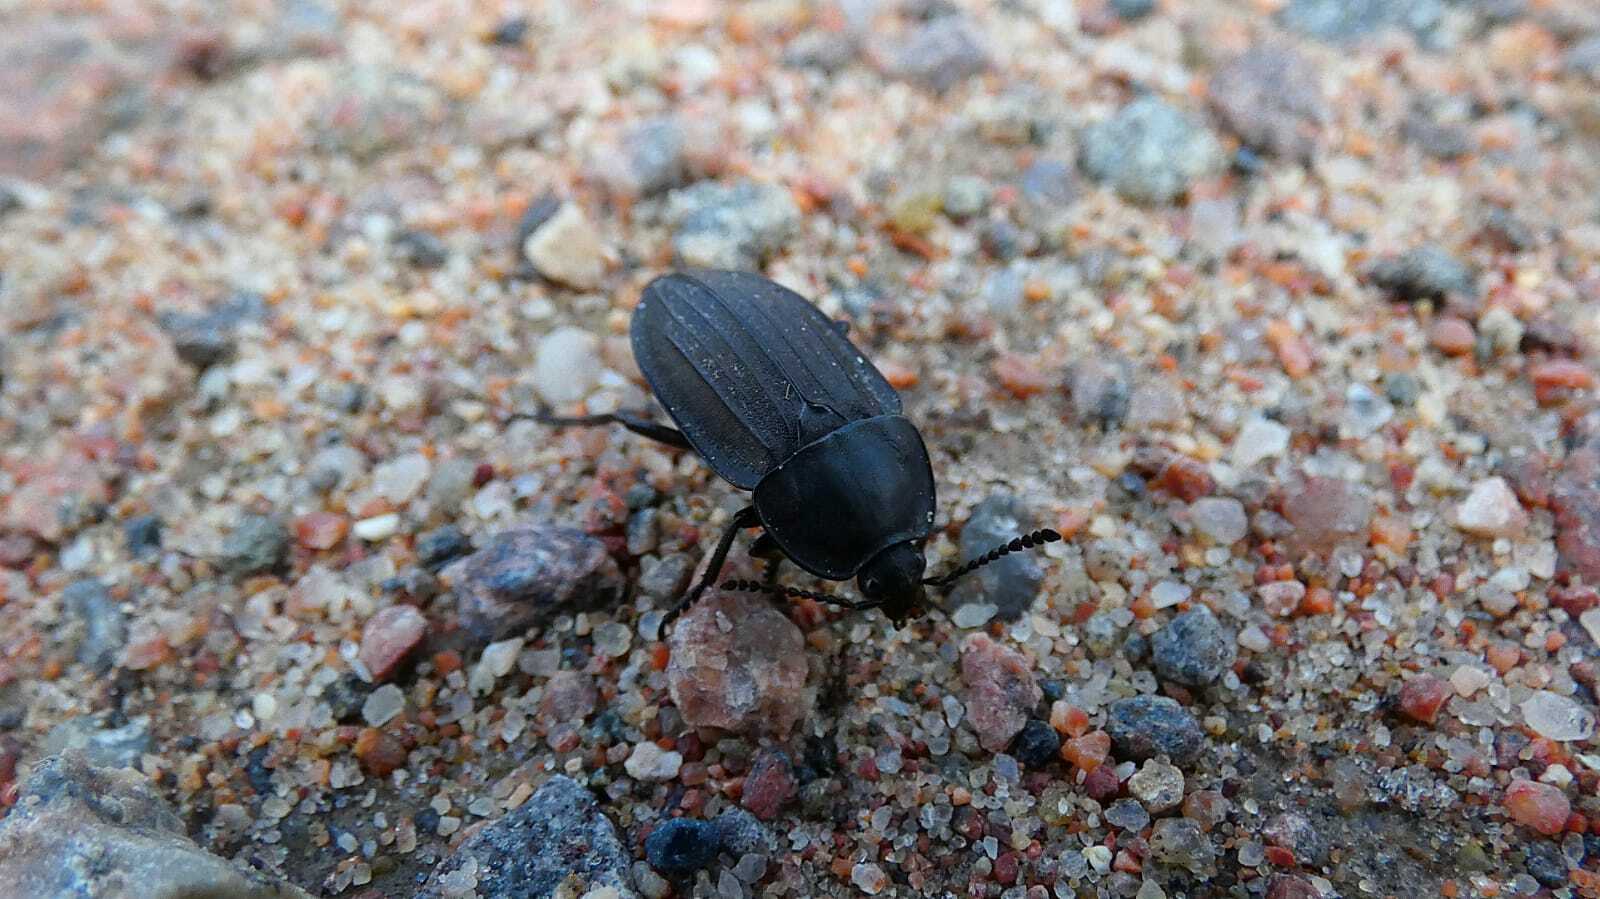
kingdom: Animalia
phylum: Arthropoda
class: Insecta
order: Coleoptera
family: Staphylinidae
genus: Silpha
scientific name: Silpha carinata
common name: Silphid beetle
